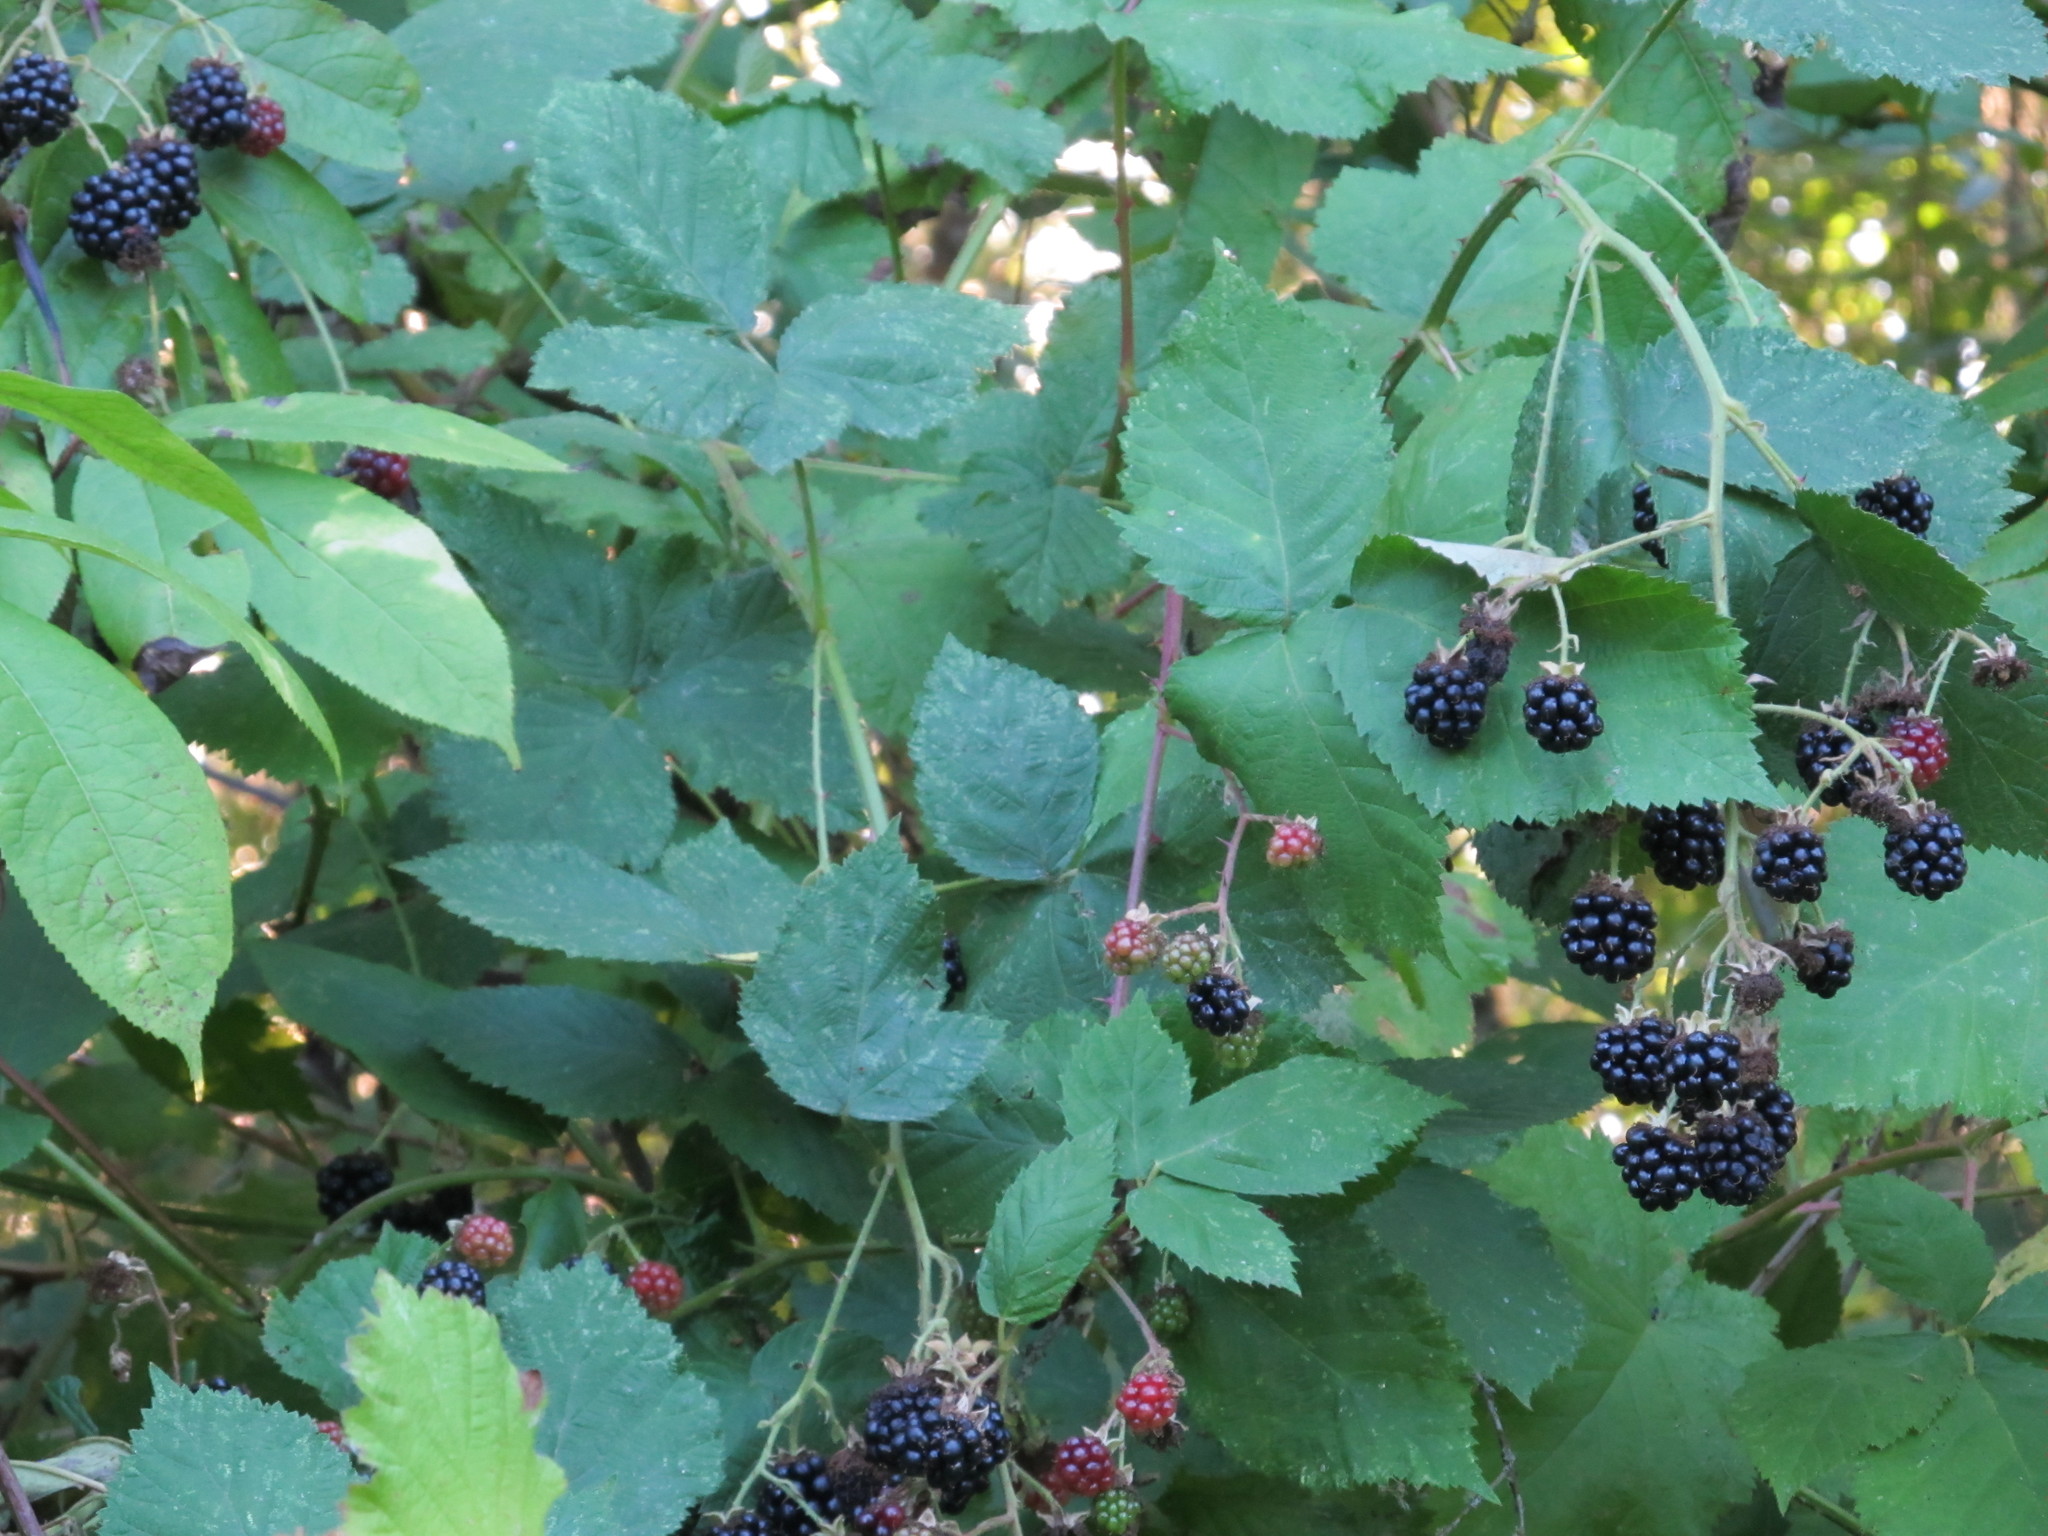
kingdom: Plantae
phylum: Tracheophyta
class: Magnoliopsida
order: Rosales
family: Rosaceae
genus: Rubus
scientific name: Rubus armeniacus
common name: Himalayan blackberry
